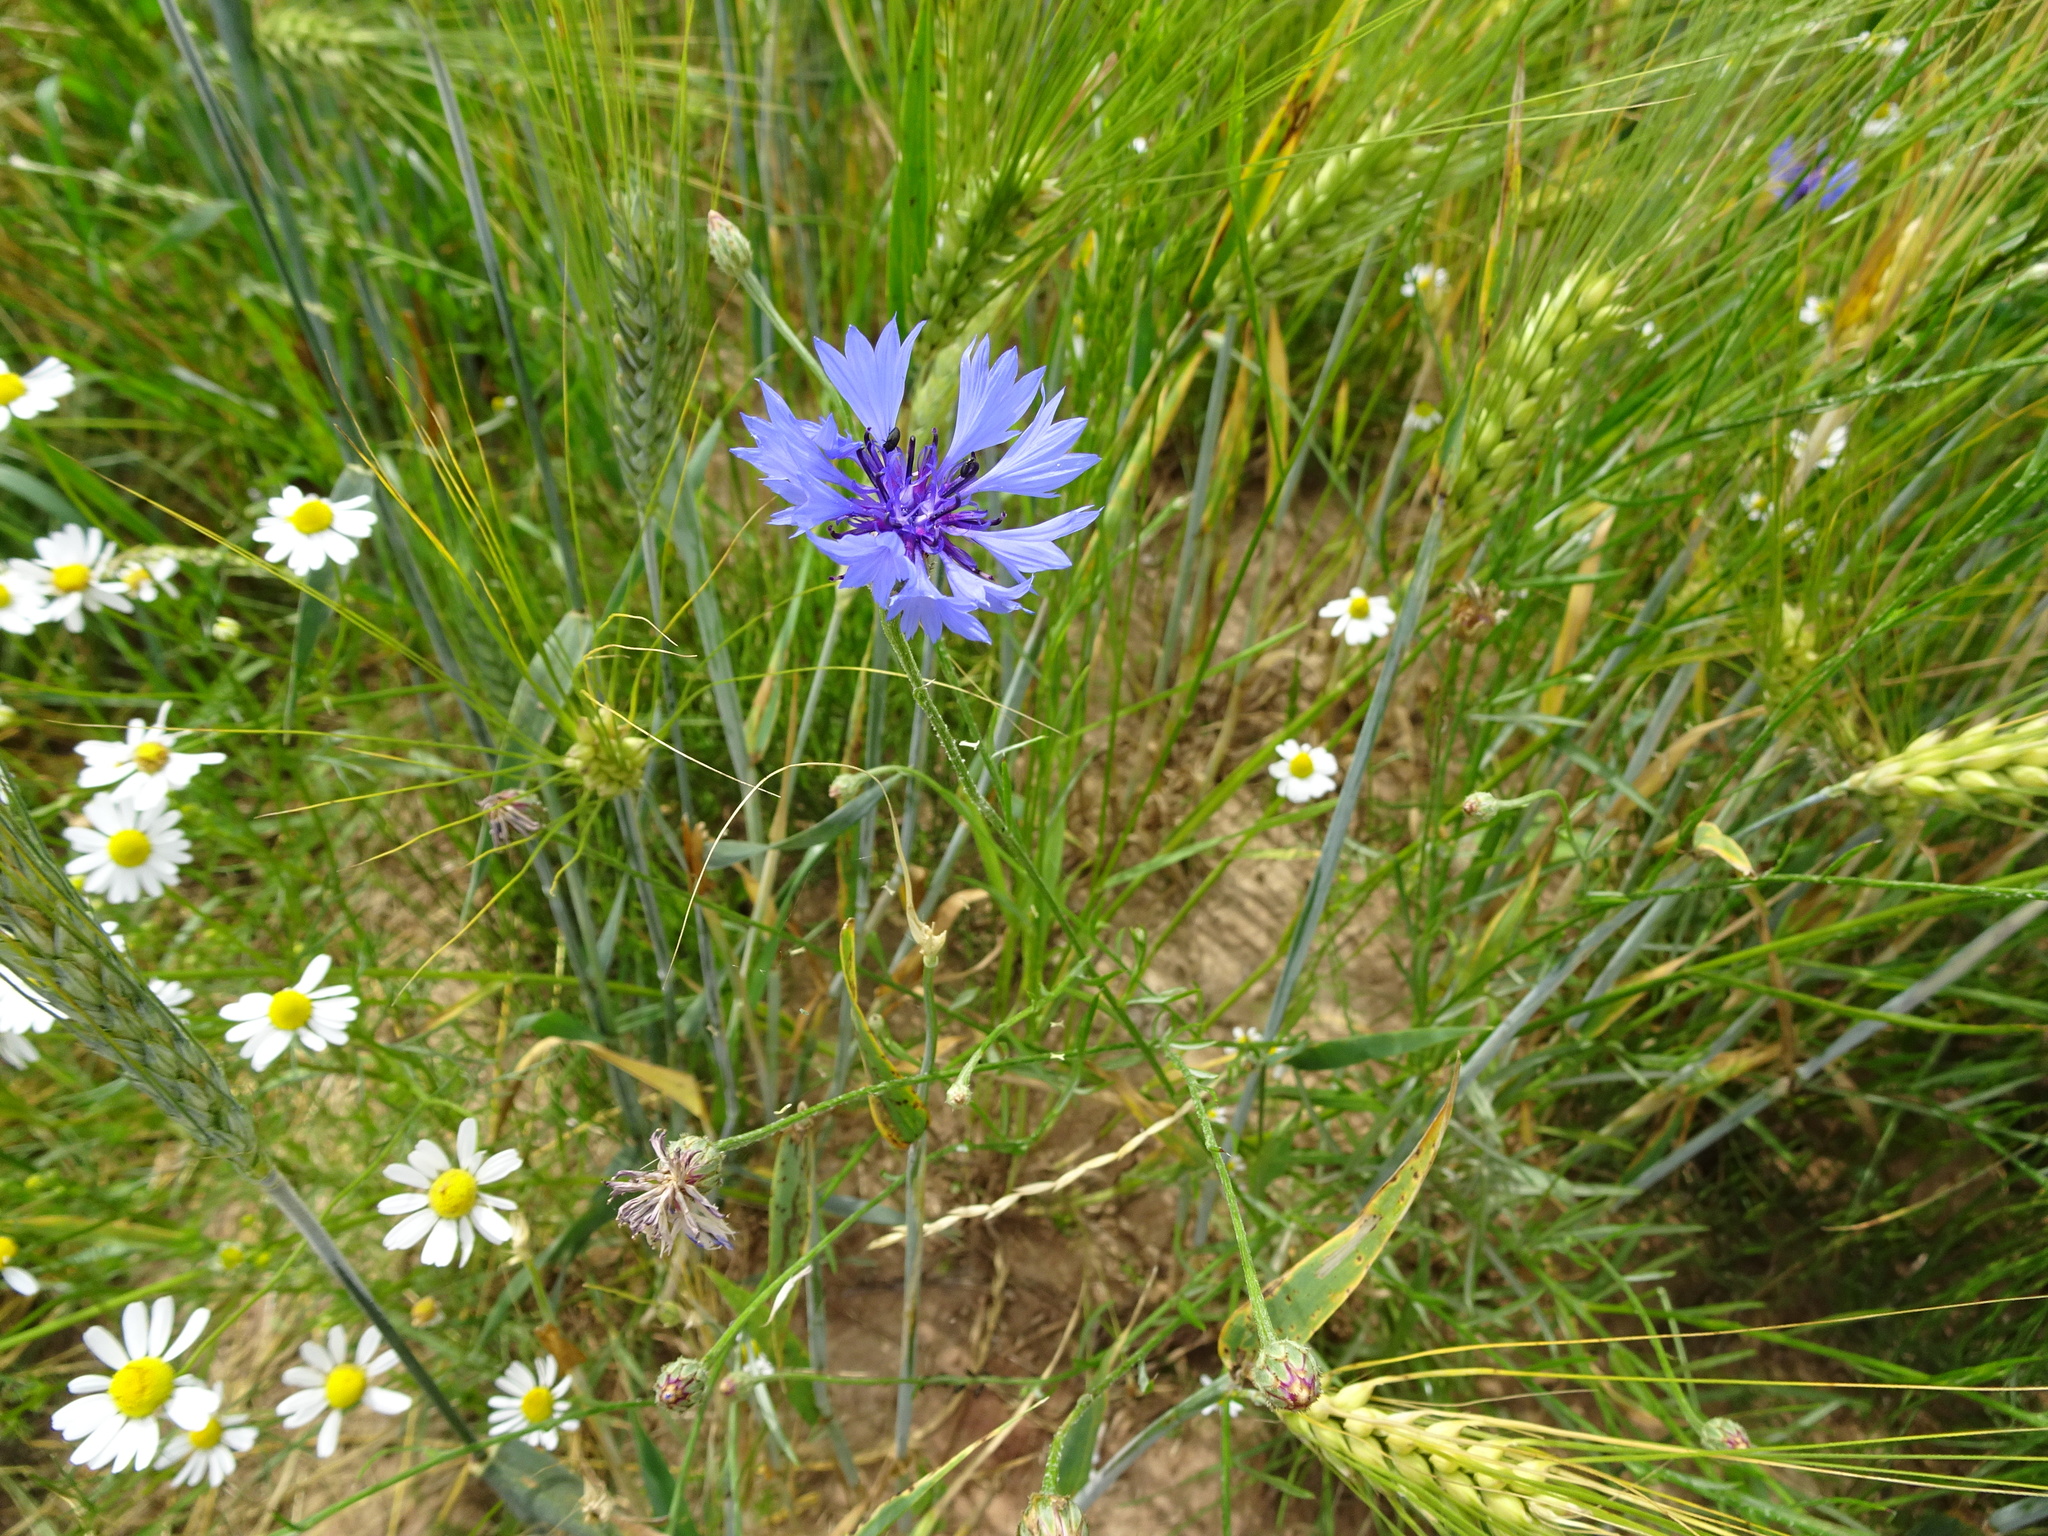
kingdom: Plantae
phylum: Tracheophyta
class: Magnoliopsida
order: Asterales
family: Asteraceae
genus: Centaurea
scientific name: Centaurea cyanus
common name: Cornflower
